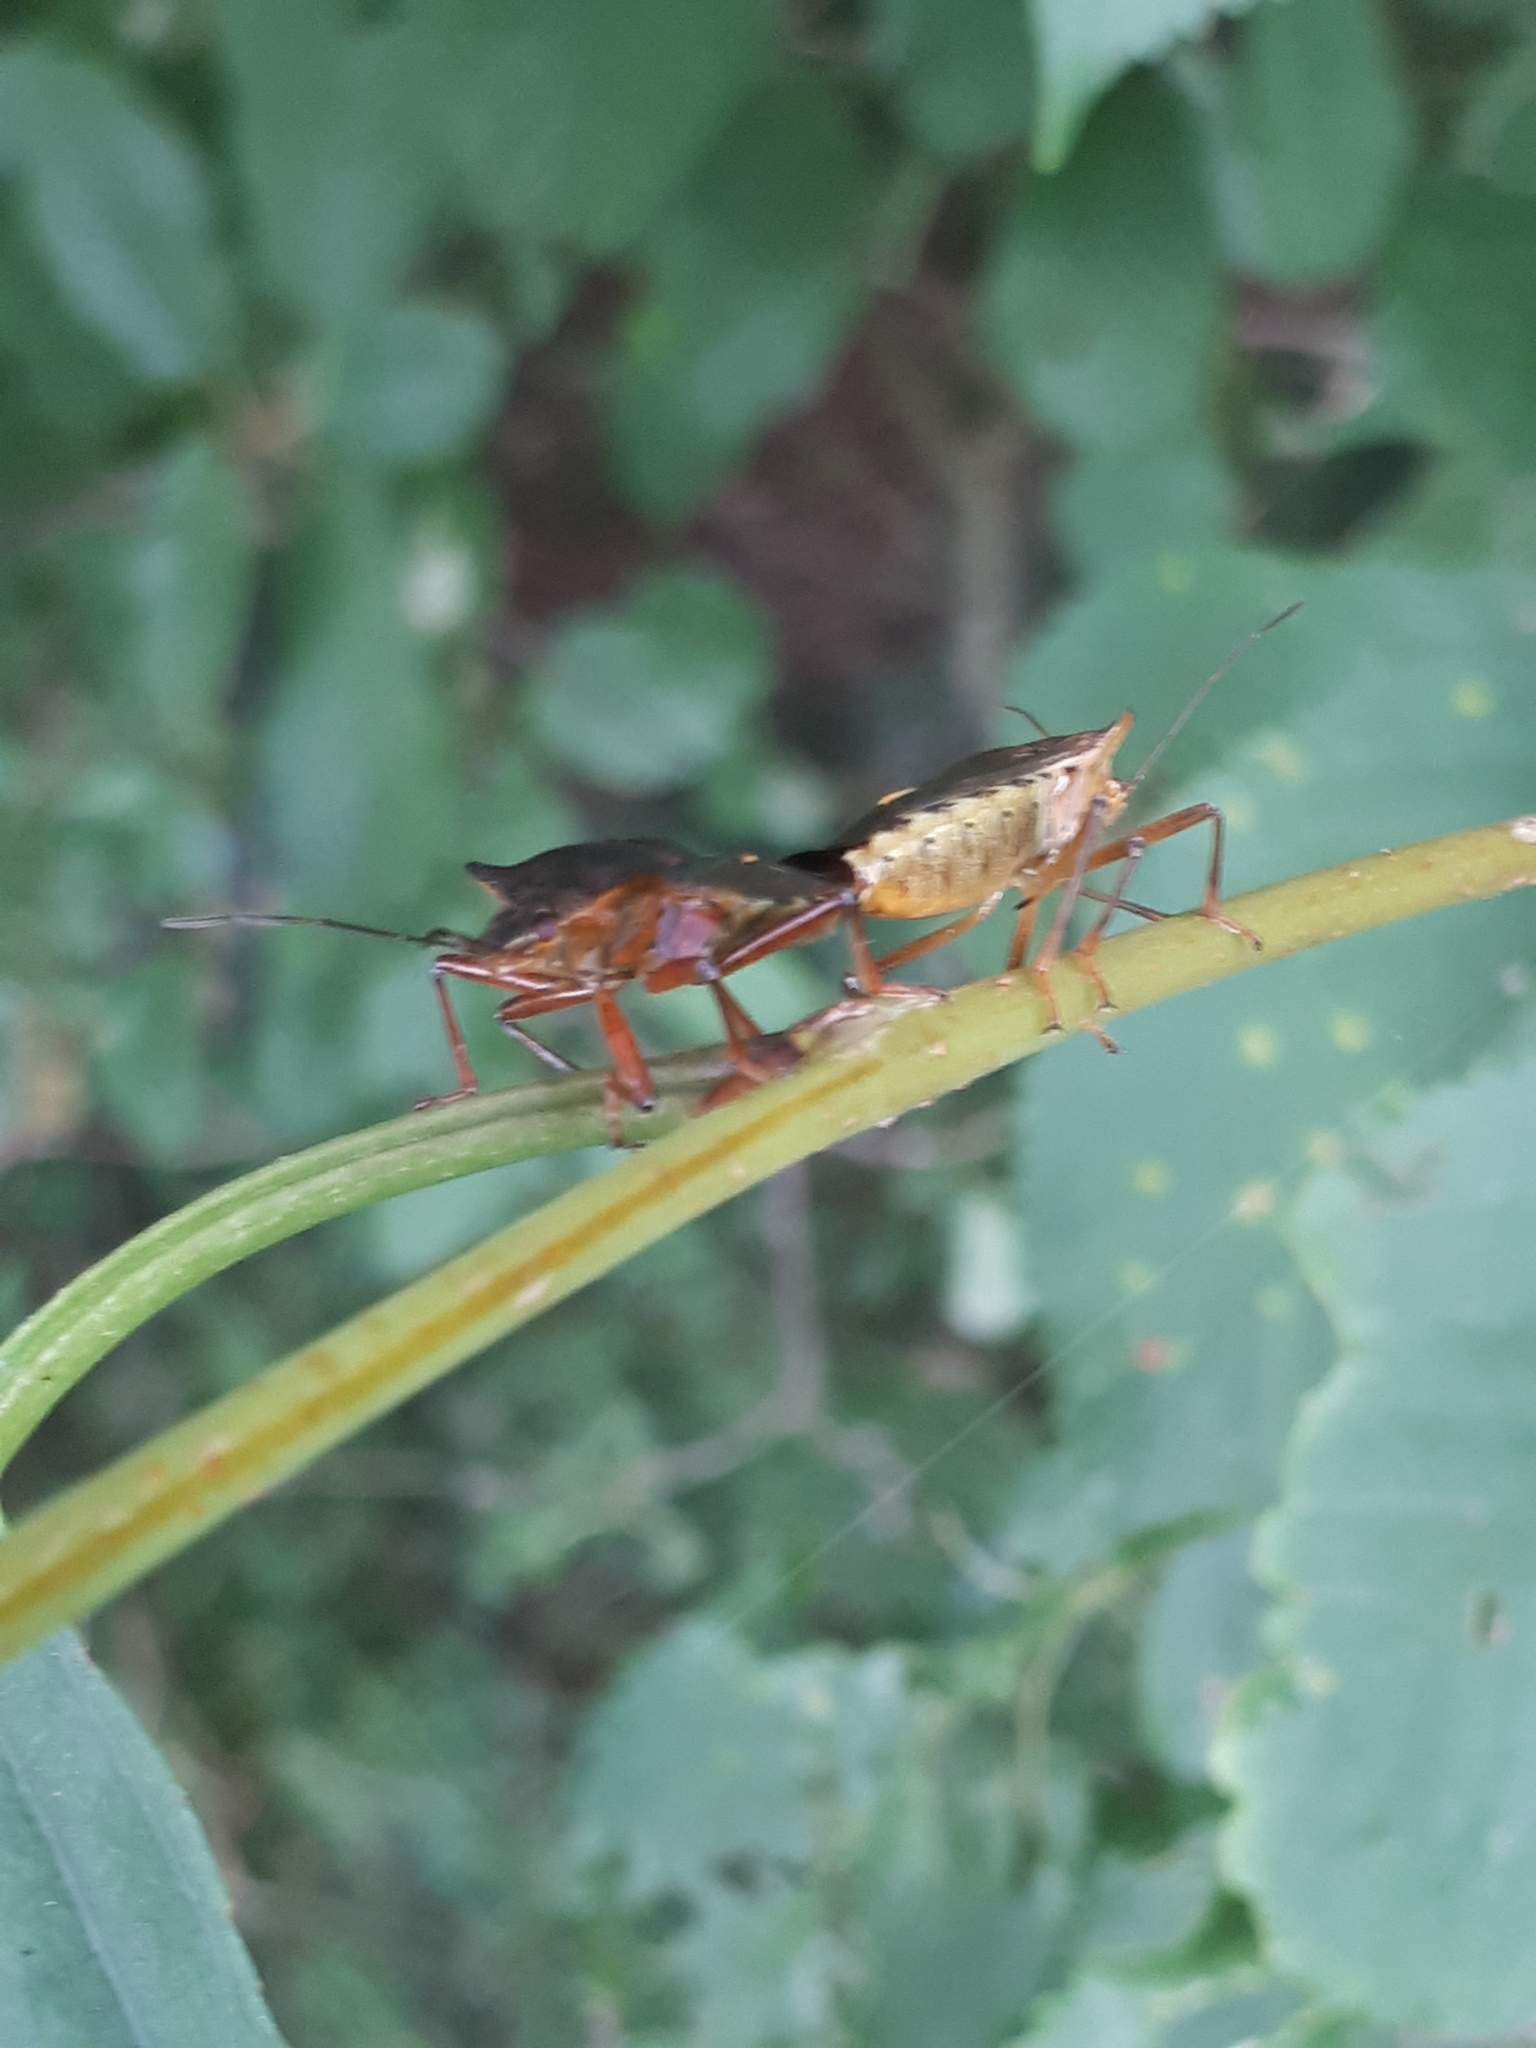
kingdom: Animalia
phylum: Arthropoda
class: Insecta
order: Hemiptera
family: Pentatomidae
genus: Pentatoma
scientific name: Pentatoma rufipes
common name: Forest bug
